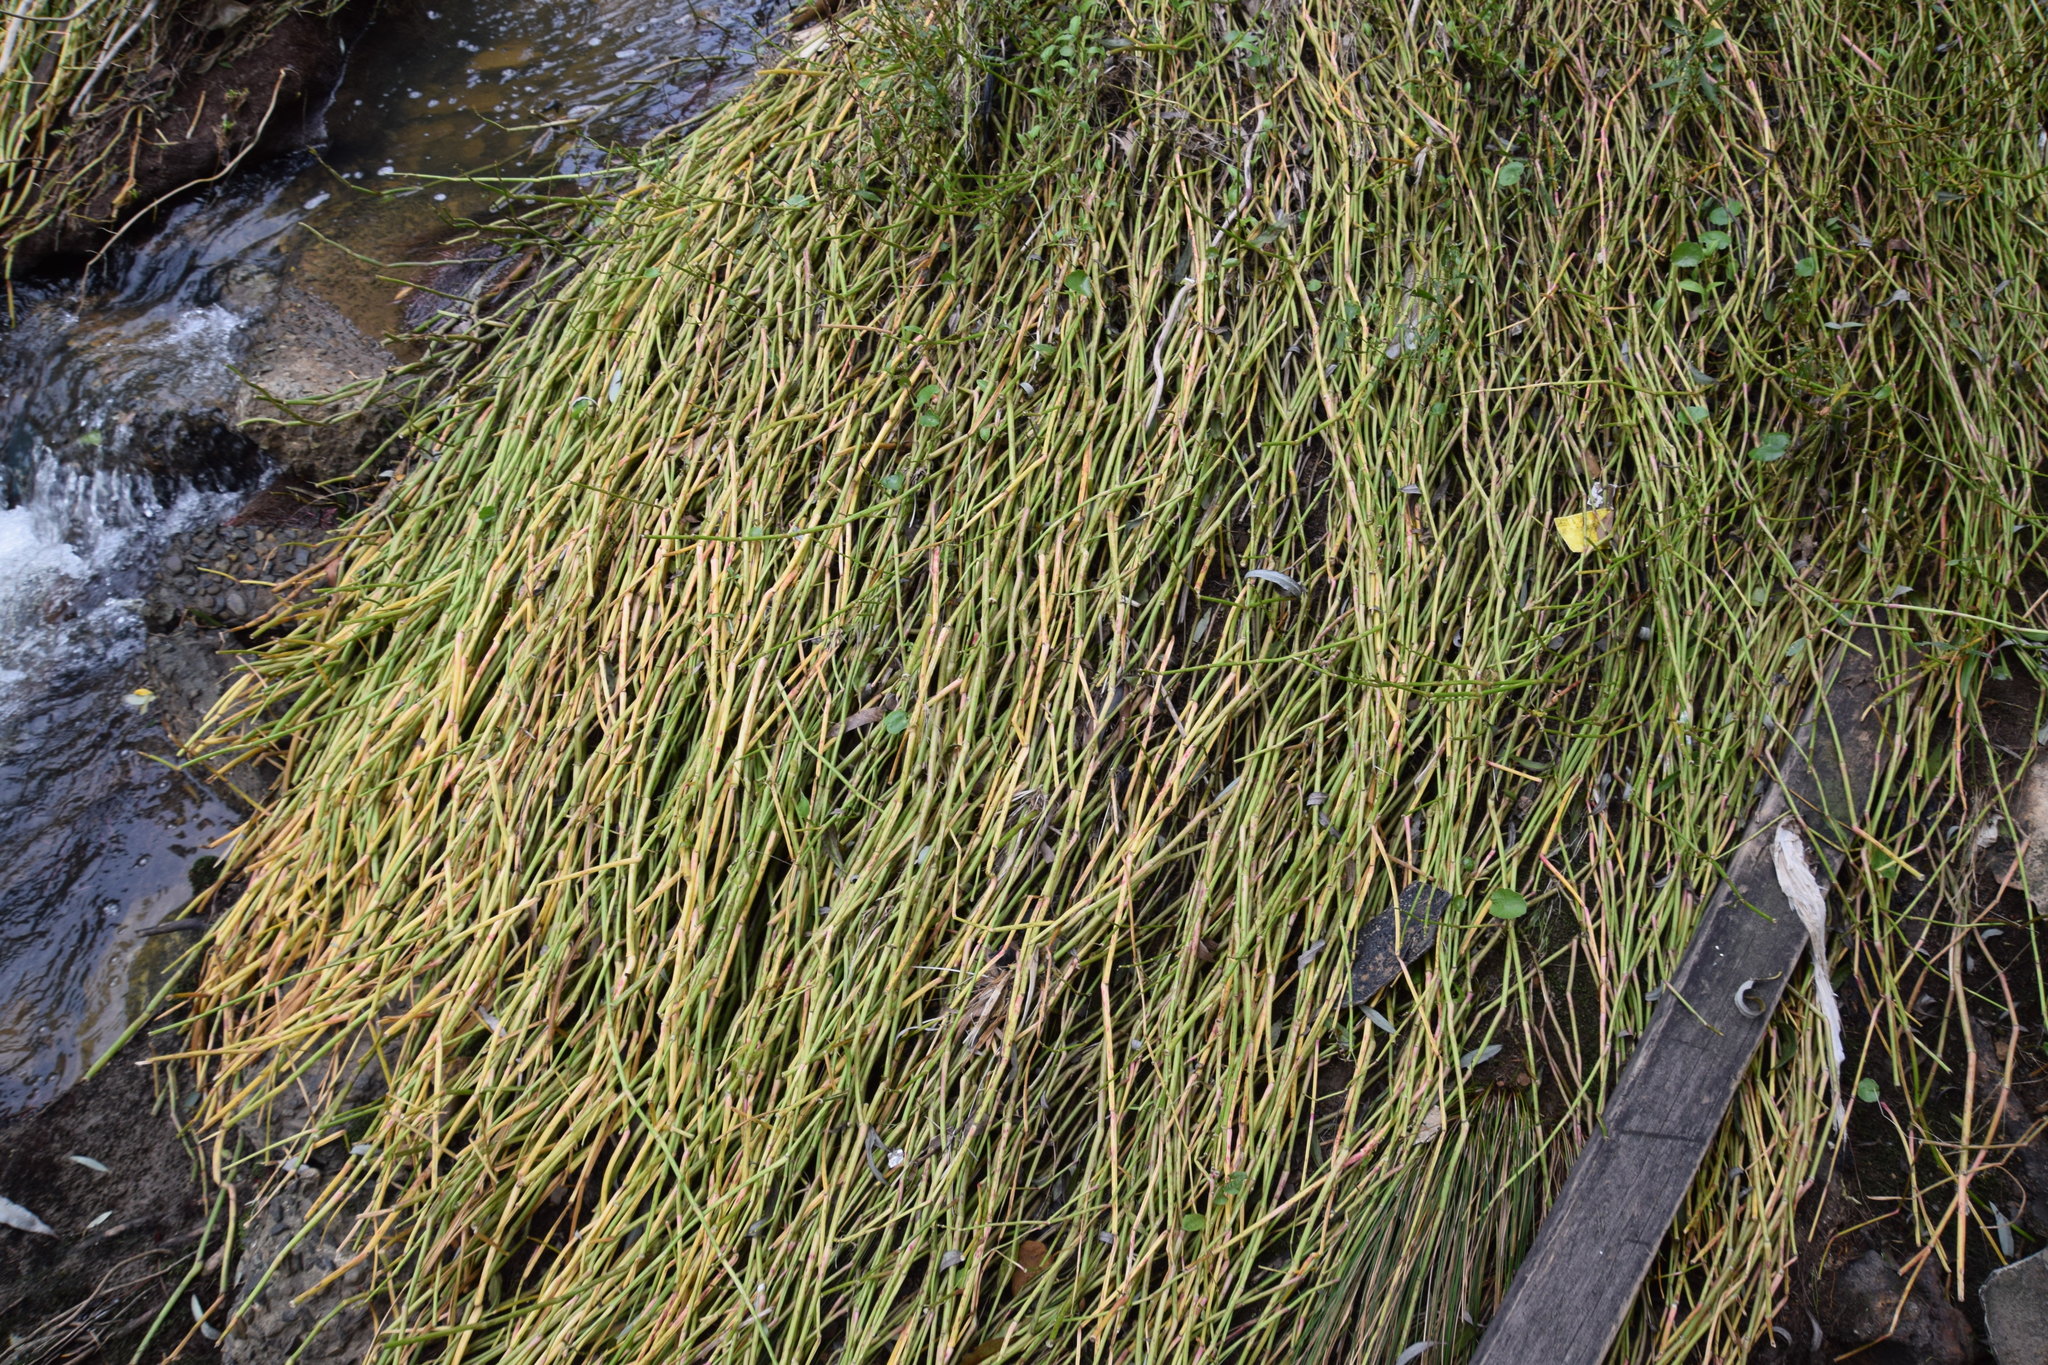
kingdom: Plantae
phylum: Tracheophyta
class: Magnoliopsida
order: Caryophyllales
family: Amaranthaceae
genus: Alternanthera
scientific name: Alternanthera philoxeroides
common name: Alligatorweed
